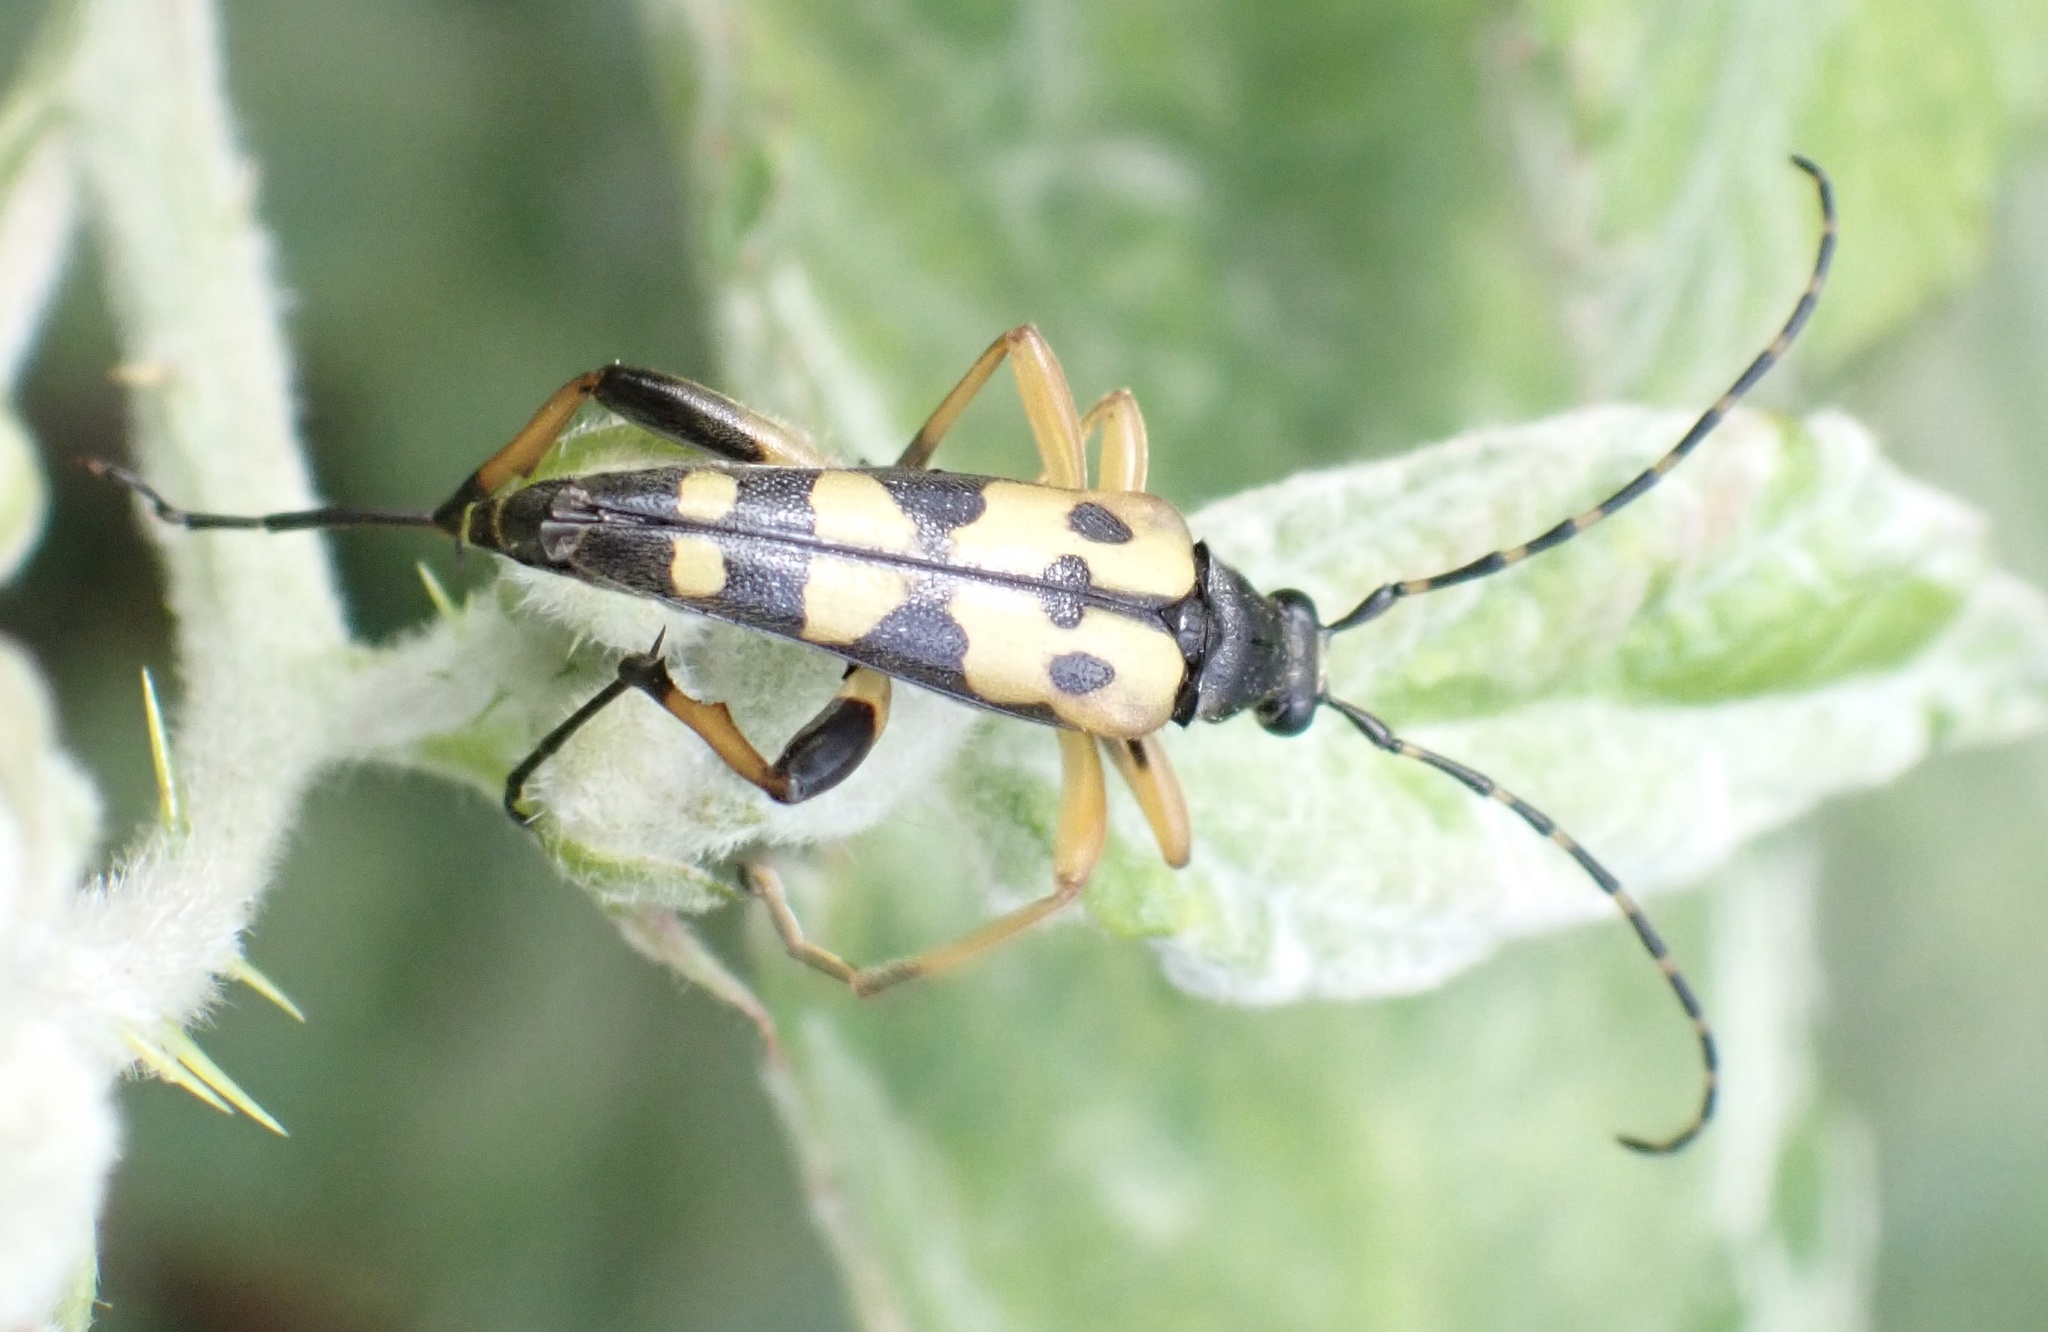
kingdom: Animalia
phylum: Arthropoda
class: Insecta
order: Coleoptera
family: Cerambycidae
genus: Rutpela
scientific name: Rutpela maculata
